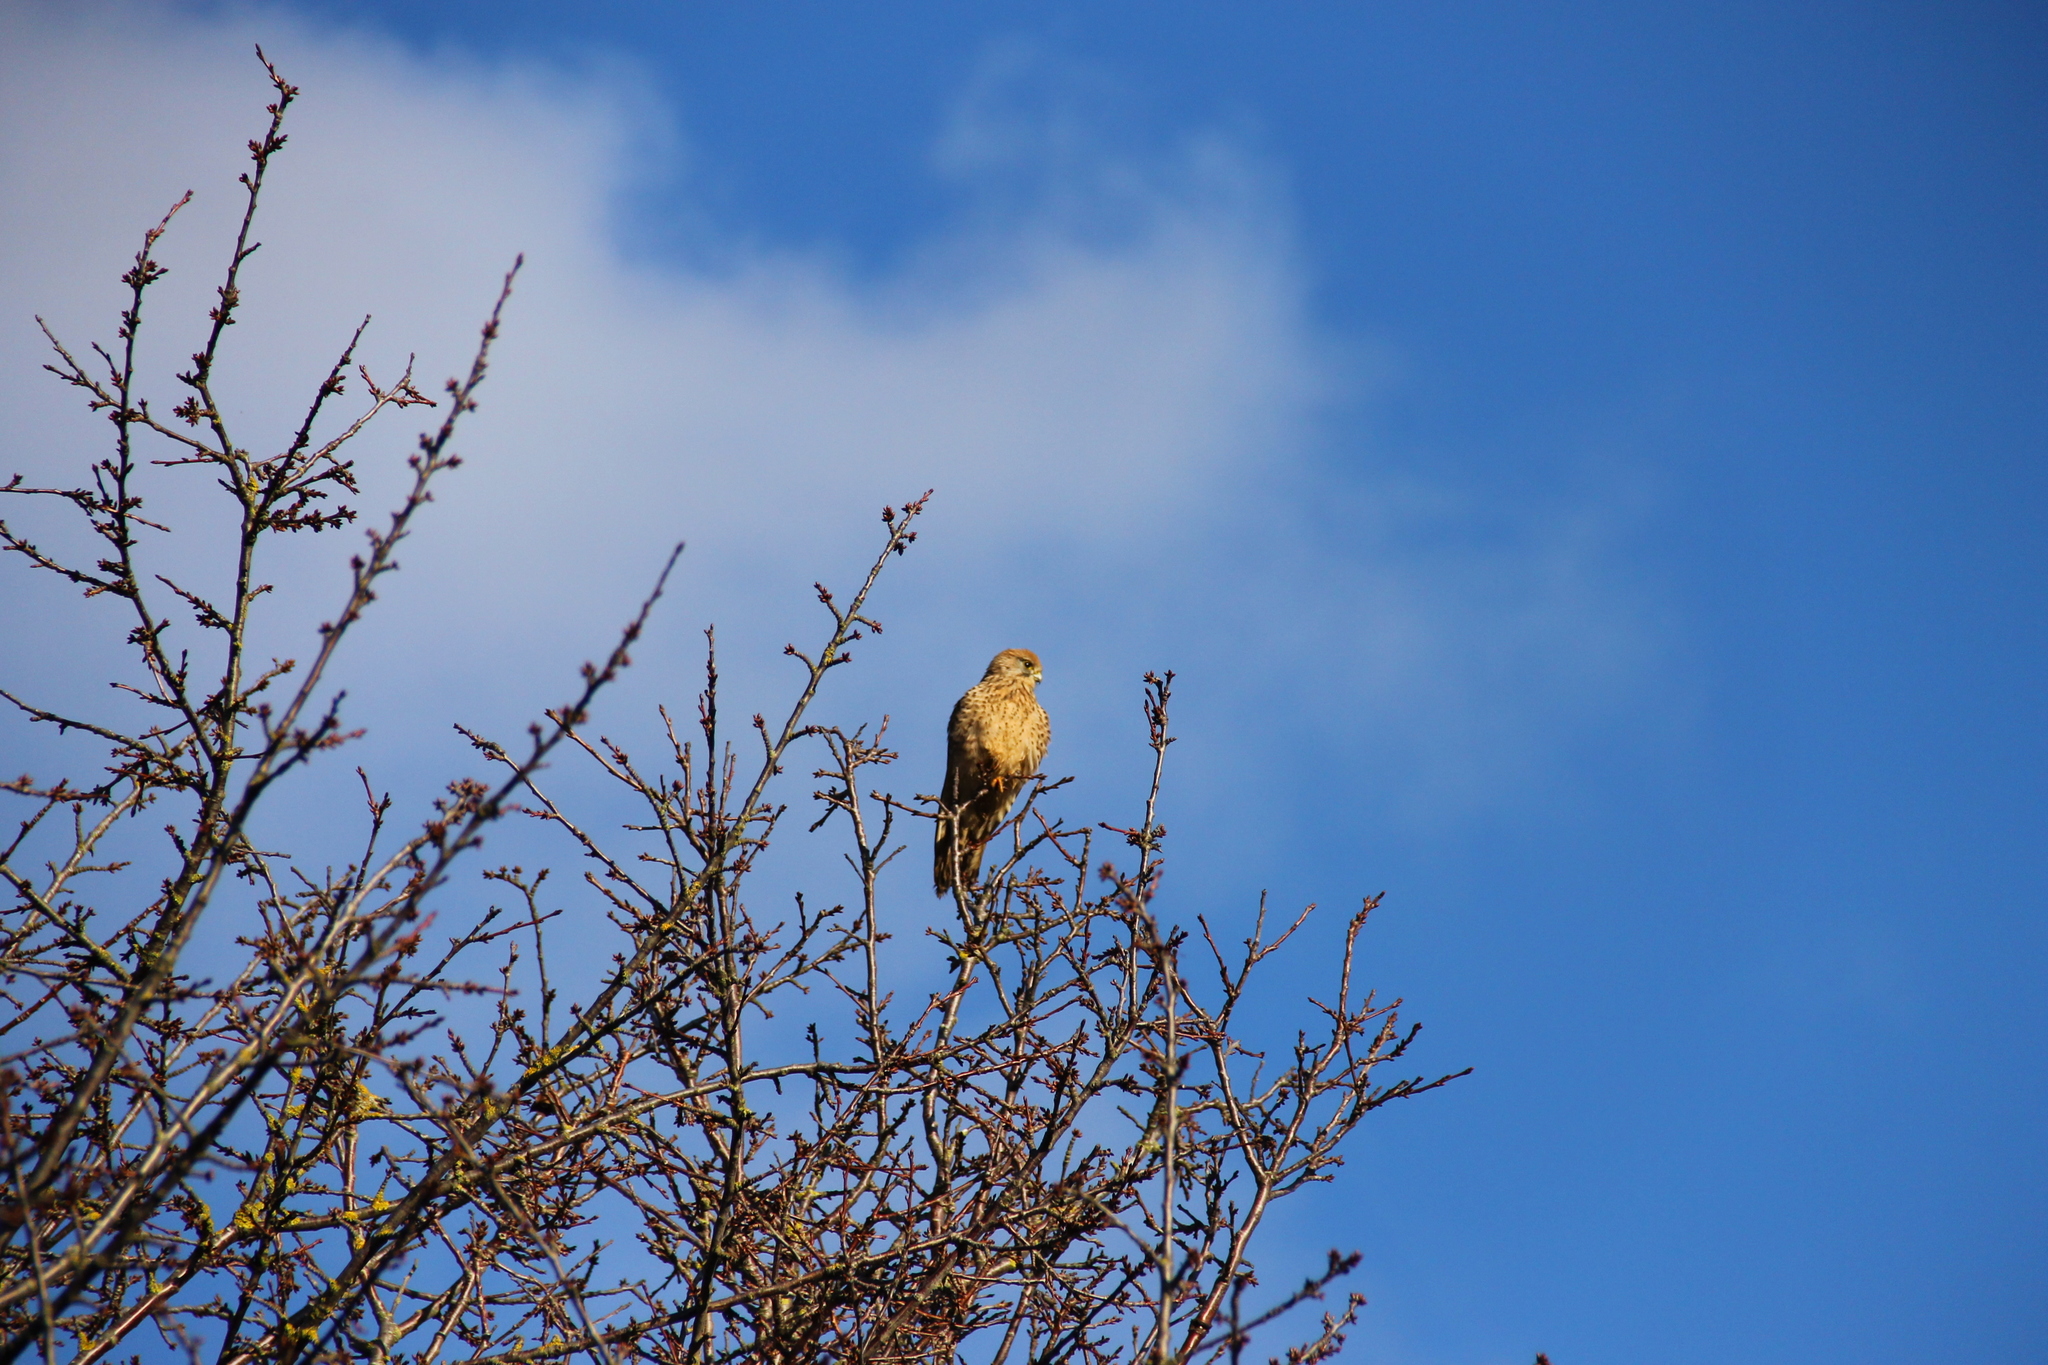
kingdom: Animalia
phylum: Chordata
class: Aves
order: Falconiformes
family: Falconidae
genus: Falco
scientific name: Falco tinnunculus
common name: Common kestrel
